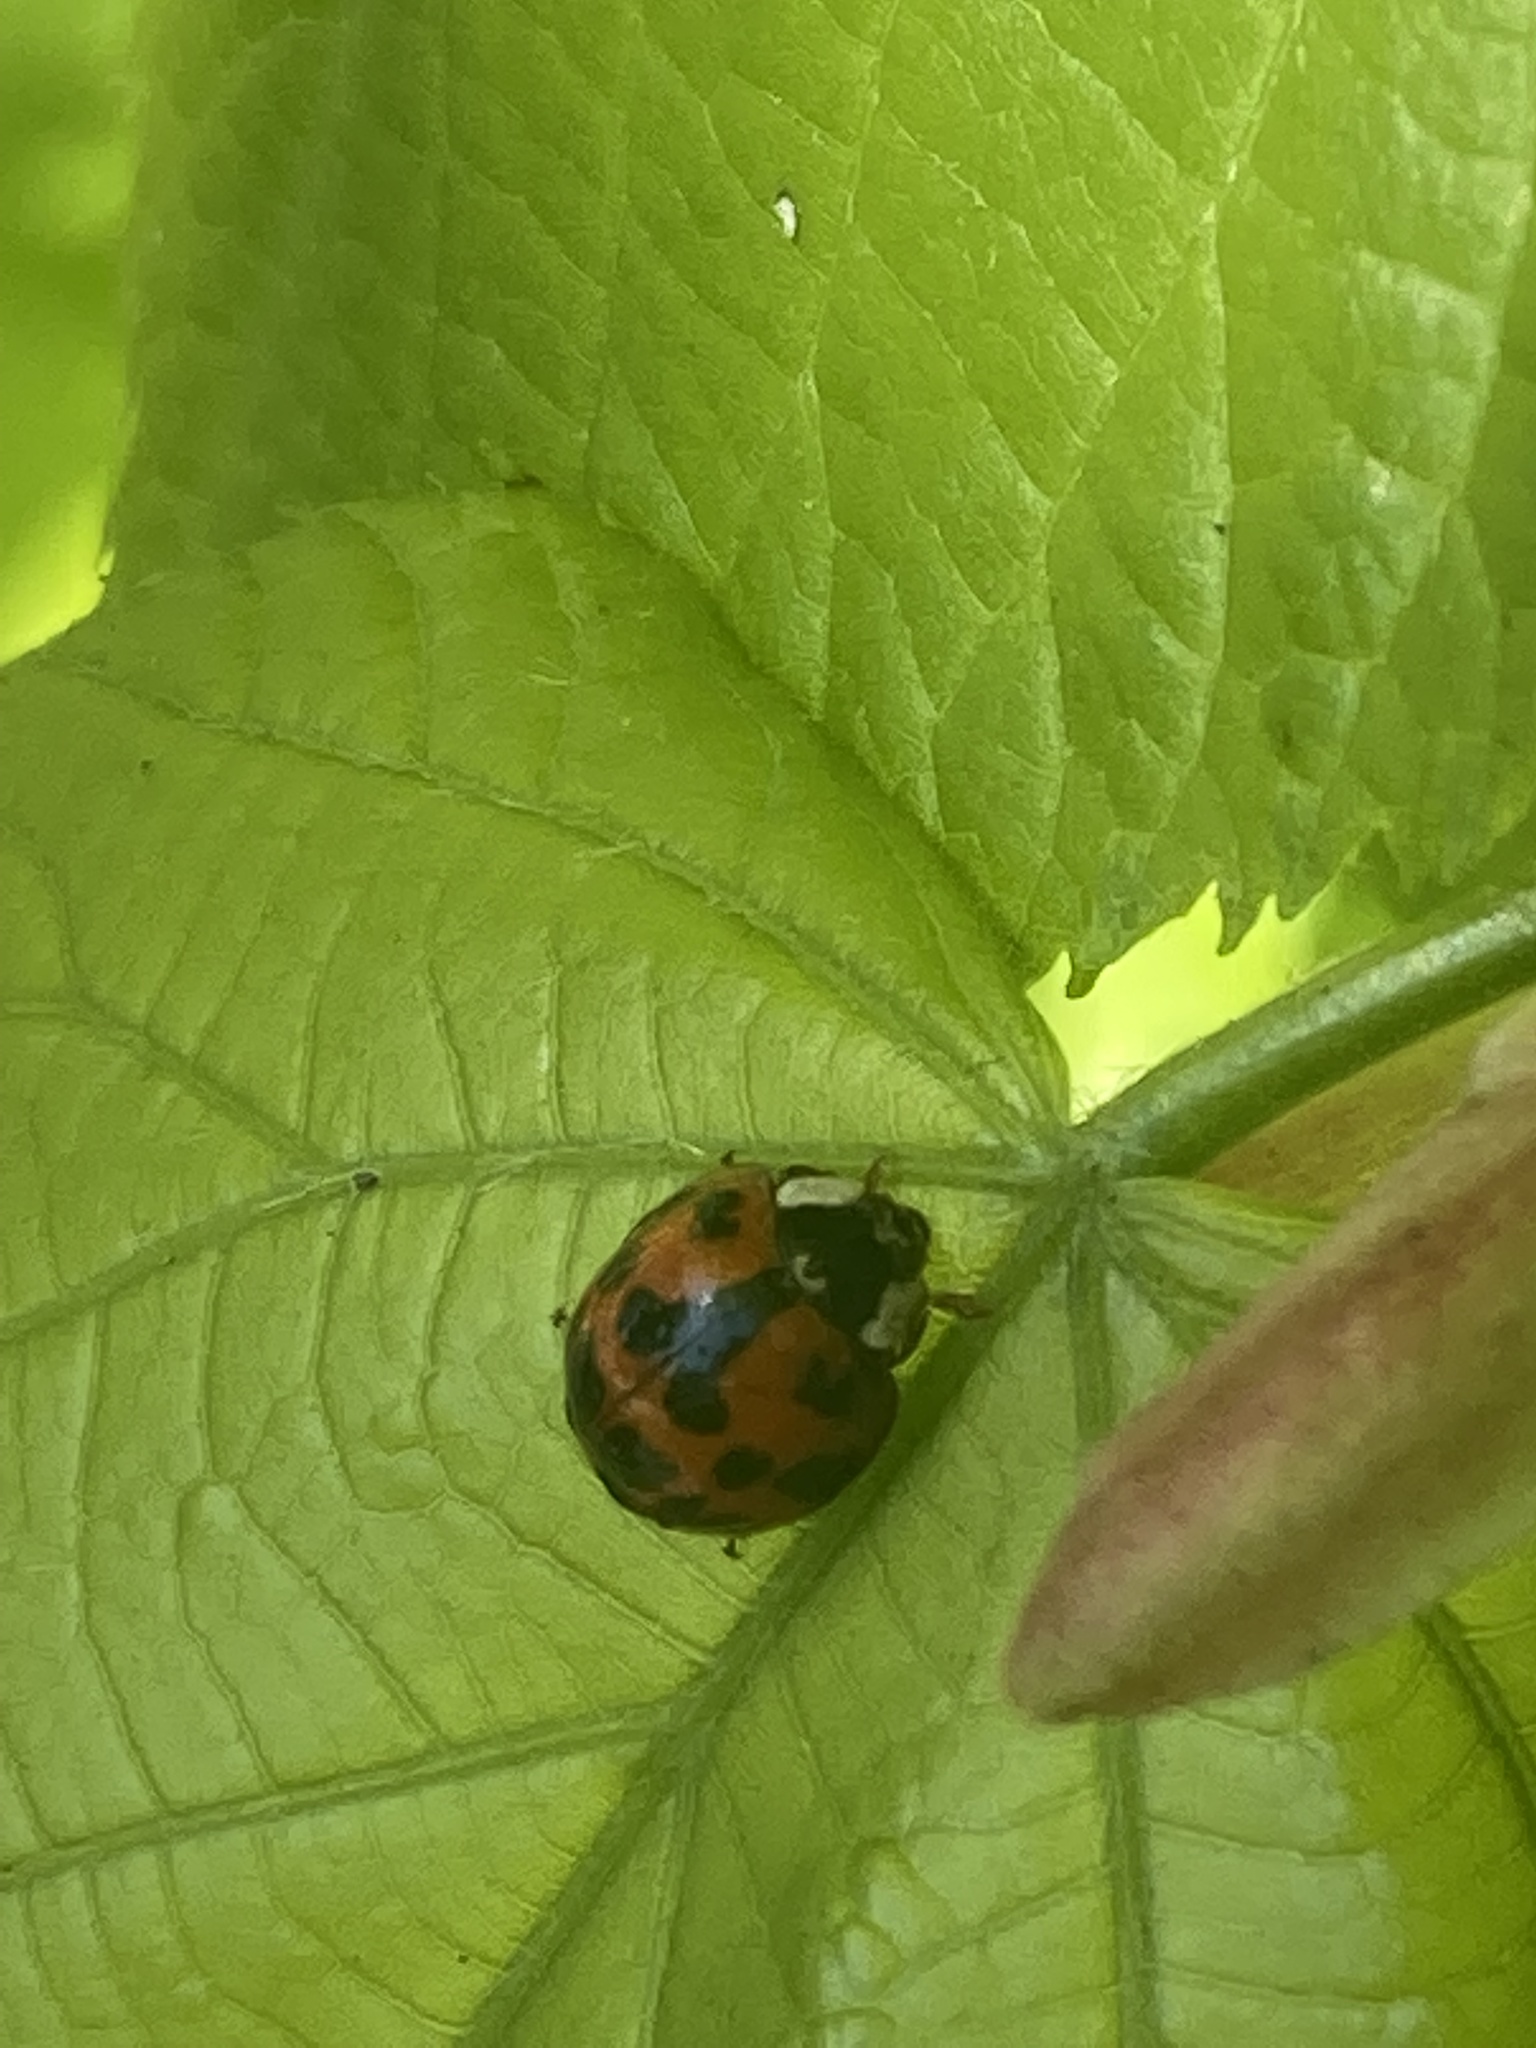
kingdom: Animalia
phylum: Arthropoda
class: Insecta
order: Coleoptera
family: Coccinellidae
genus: Harmonia
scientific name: Harmonia axyridis
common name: Harlequin ladybird
